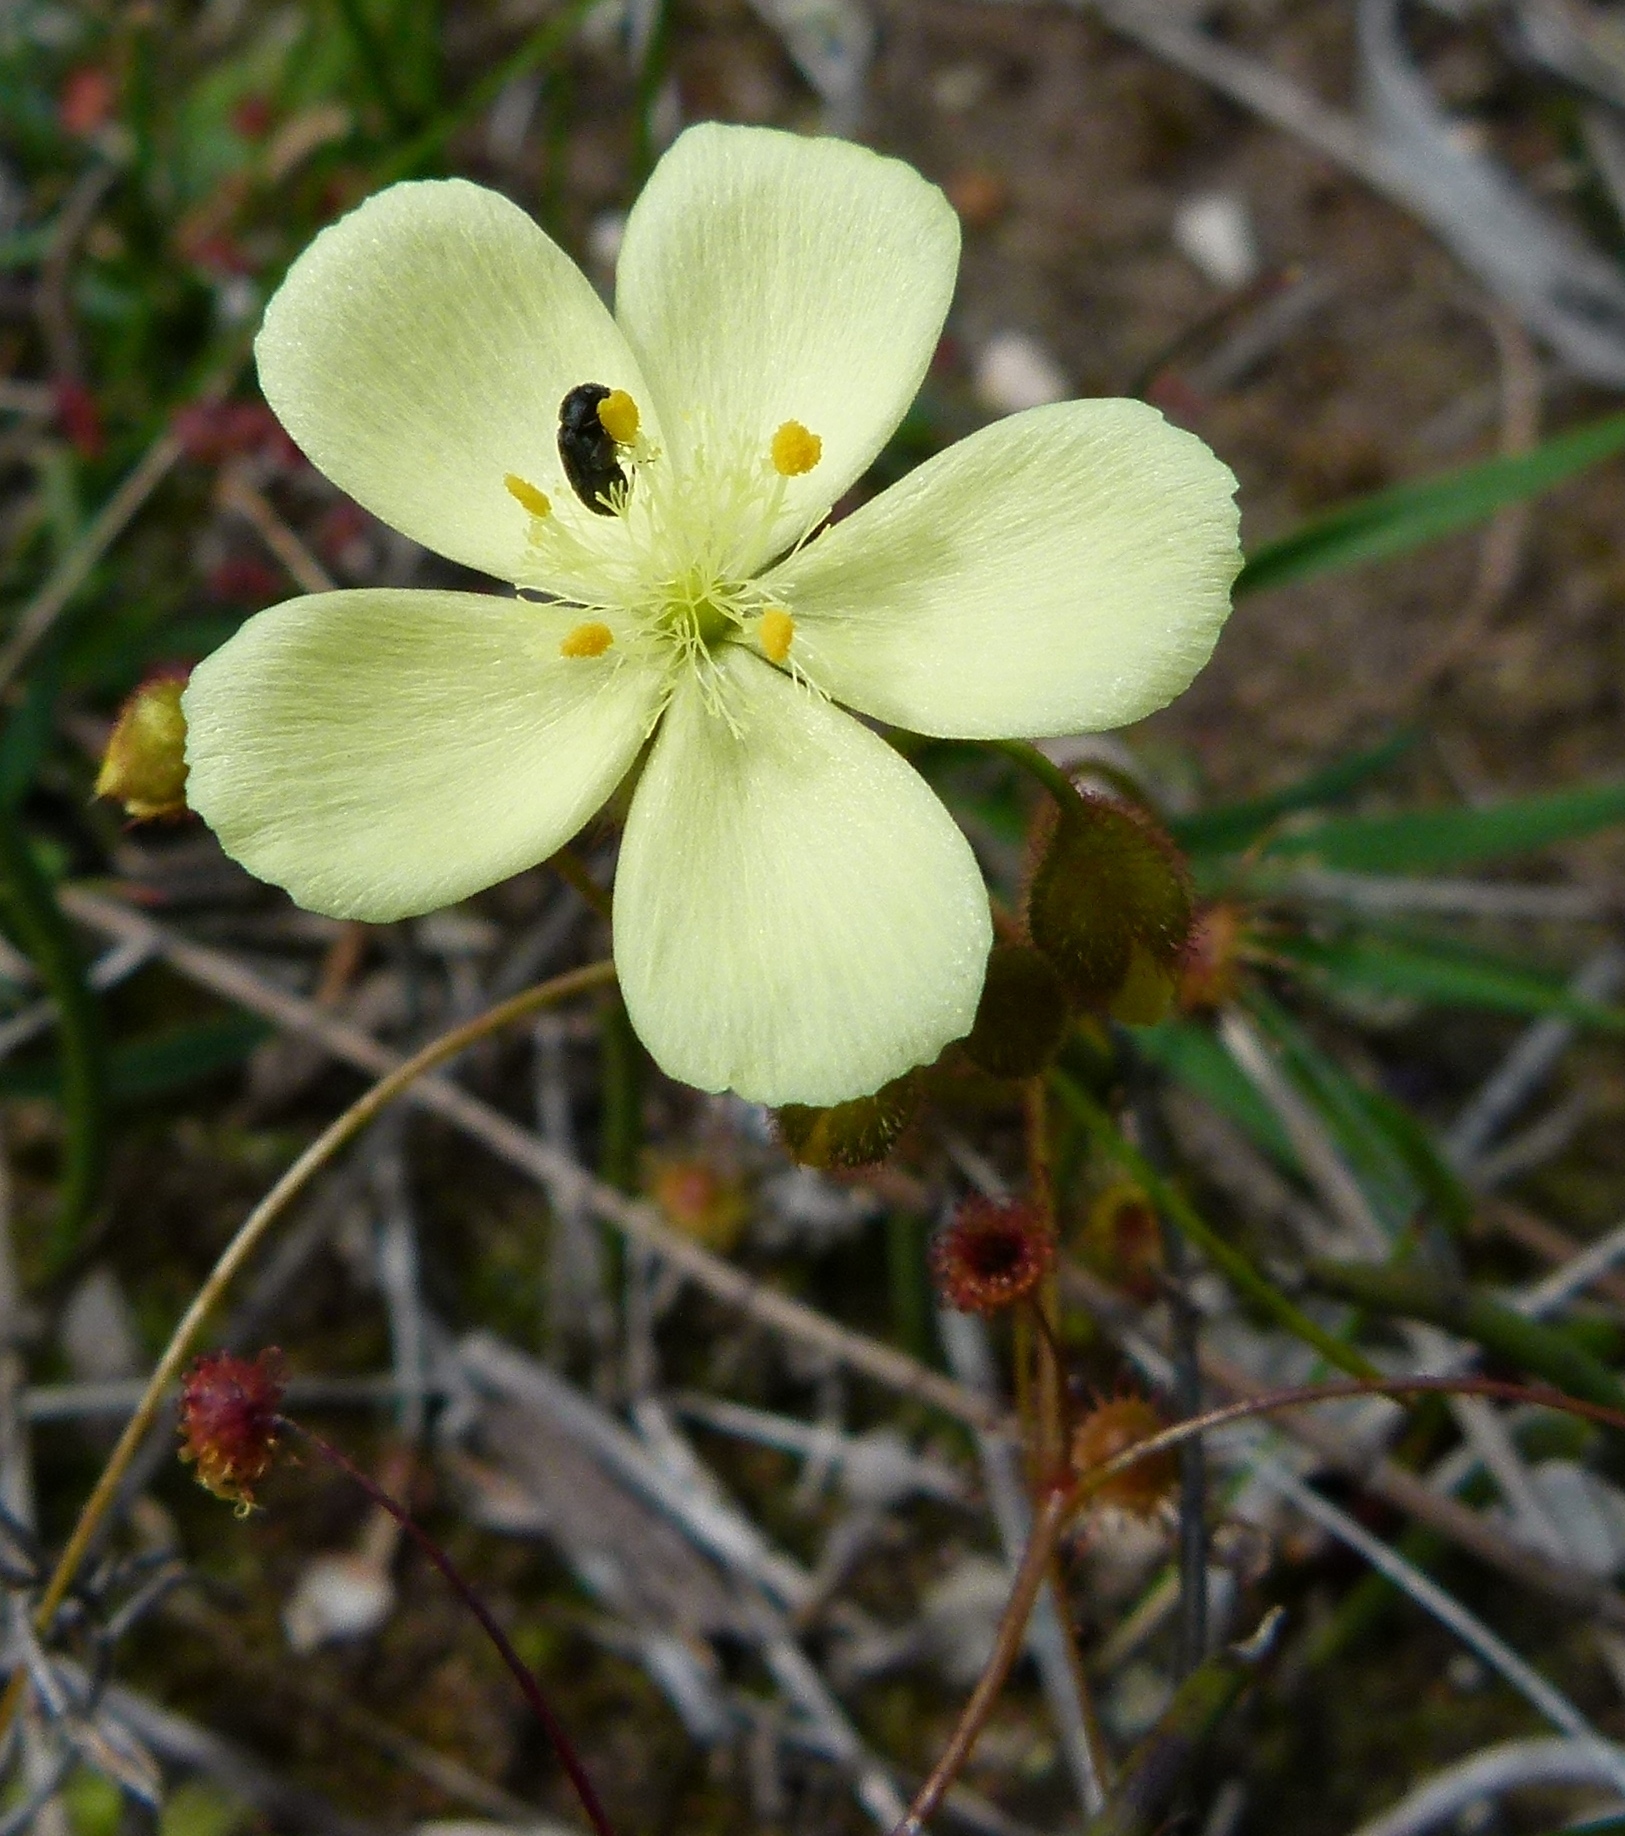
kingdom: Plantae
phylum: Tracheophyta
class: Magnoliopsida
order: Caryophyllales
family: Droseraceae
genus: Drosera
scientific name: Drosera subhirtella
